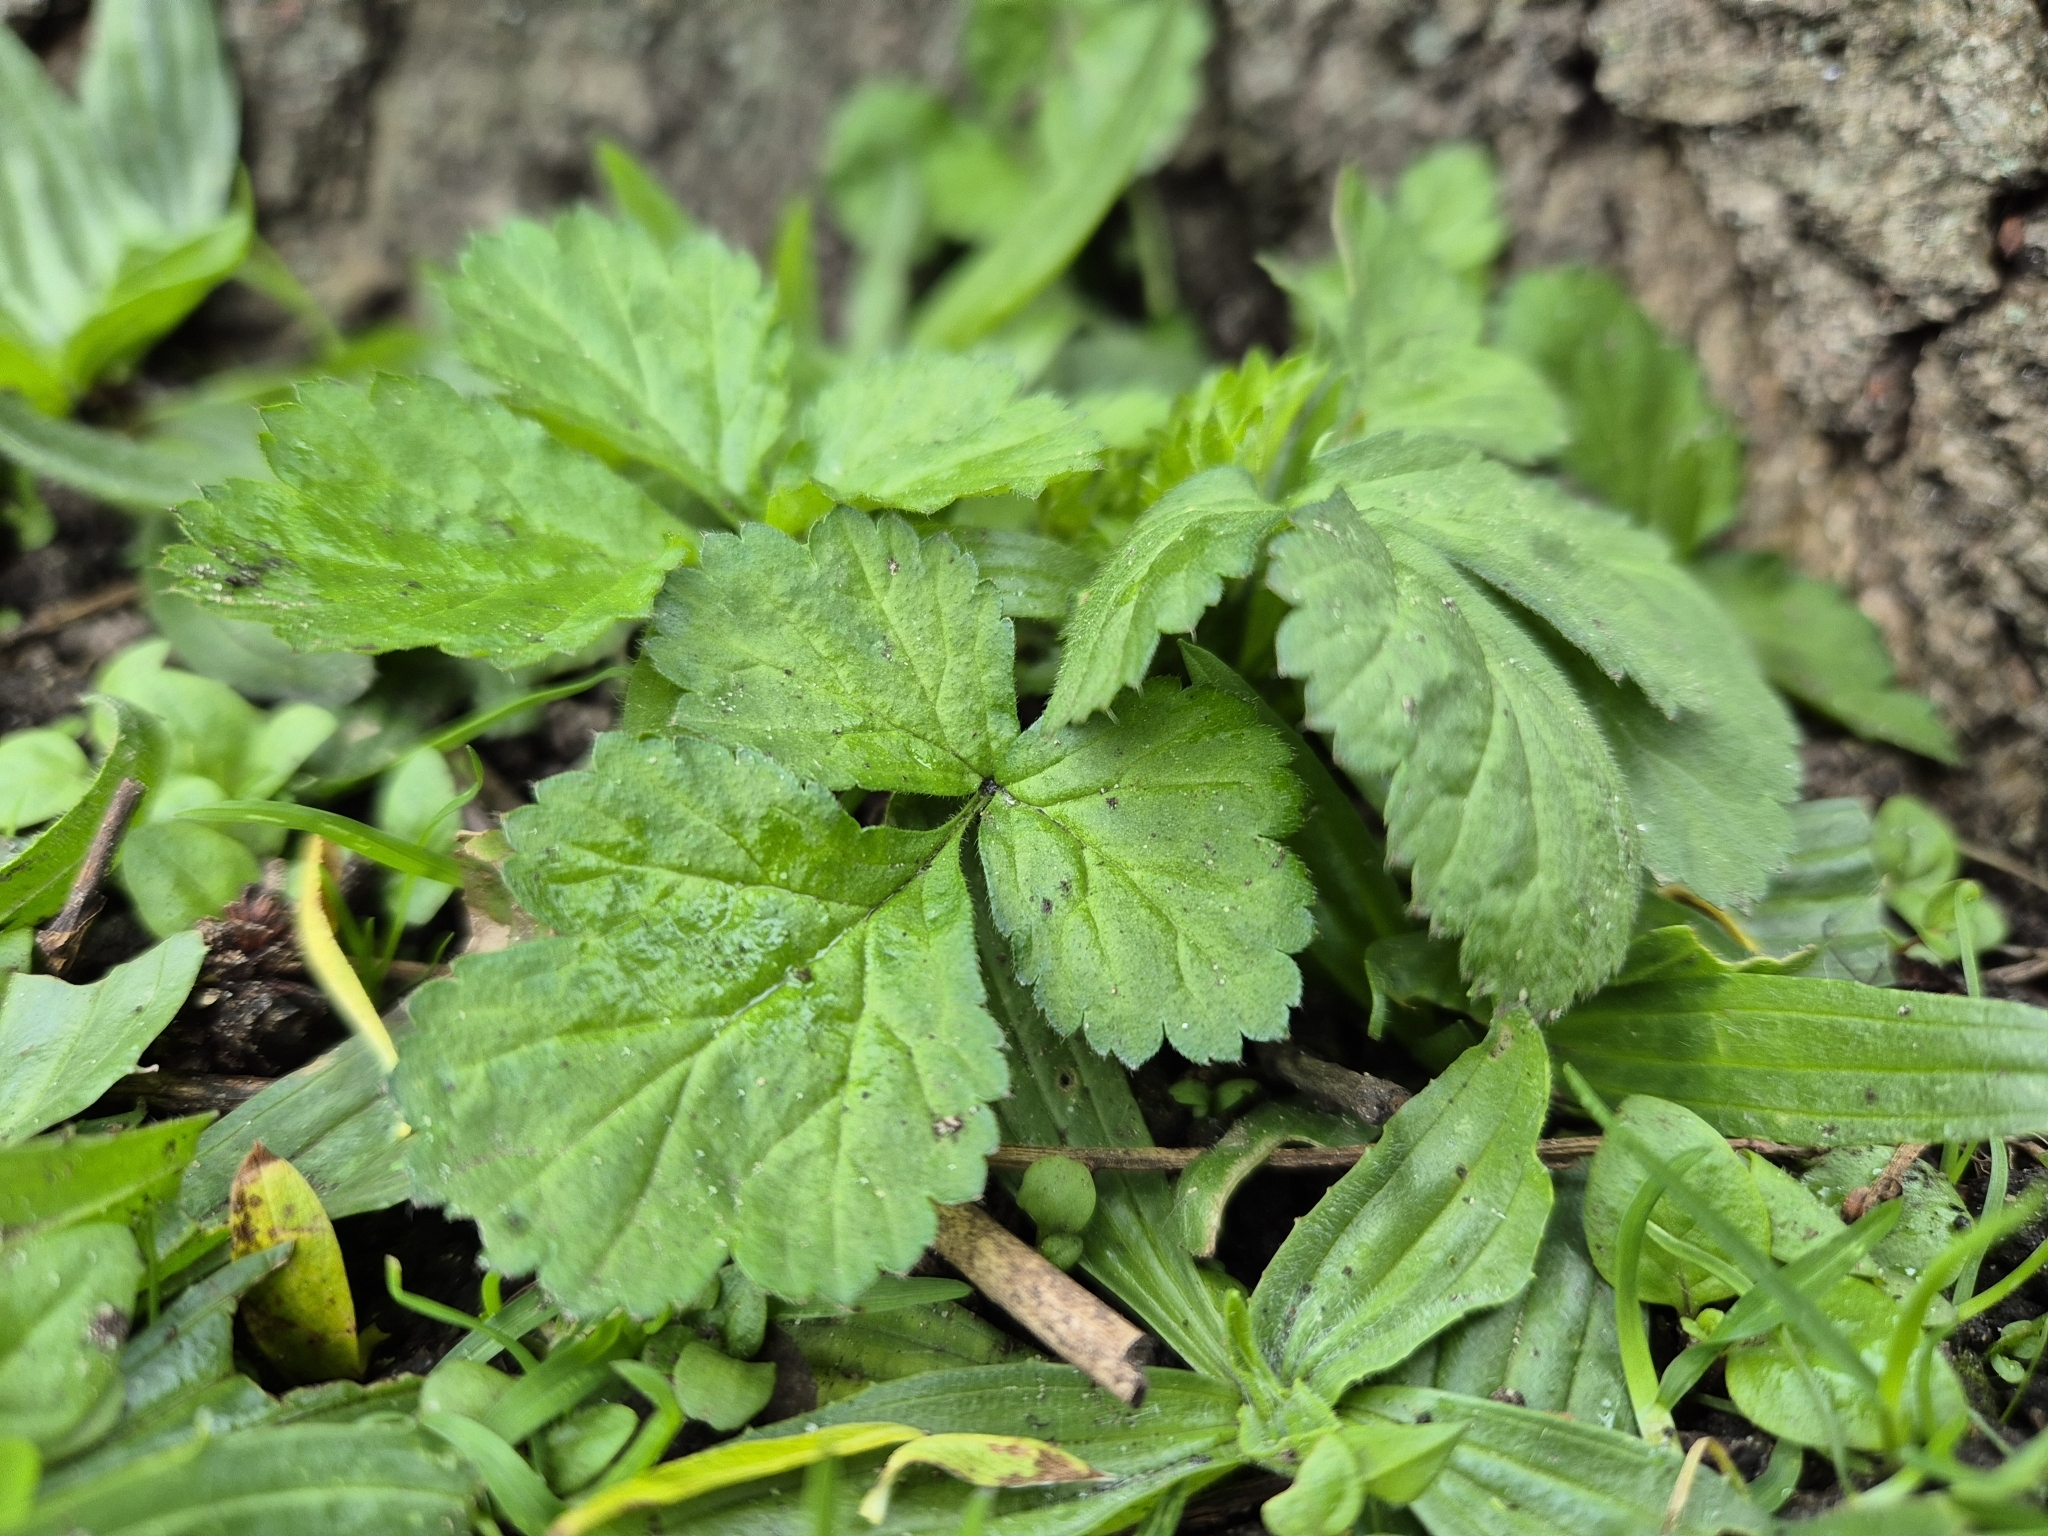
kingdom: Plantae
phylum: Tracheophyta
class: Magnoliopsida
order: Rosales
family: Rosaceae
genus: Geum
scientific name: Geum urbanum
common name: Wood avens
